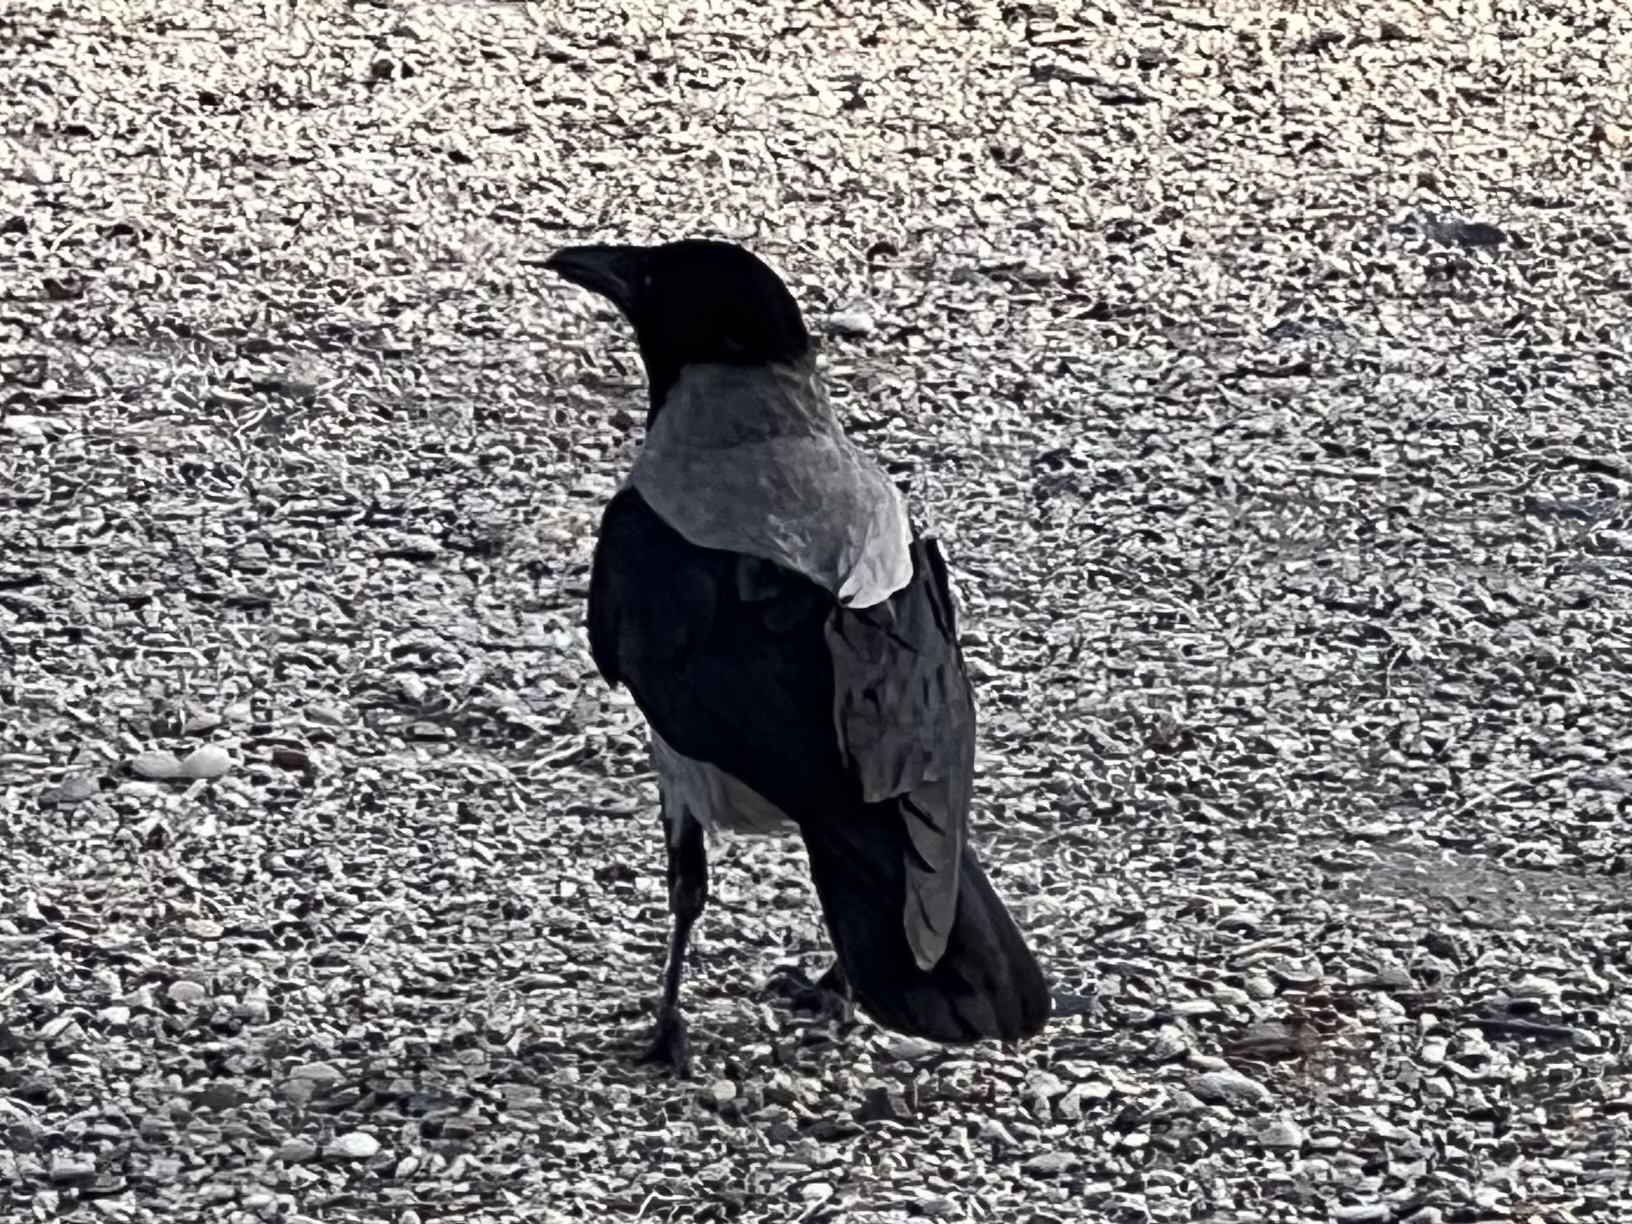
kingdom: Animalia
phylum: Chordata
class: Aves
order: Passeriformes
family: Corvidae
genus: Corvus
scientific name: Corvus cornix
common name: Hooded crow
